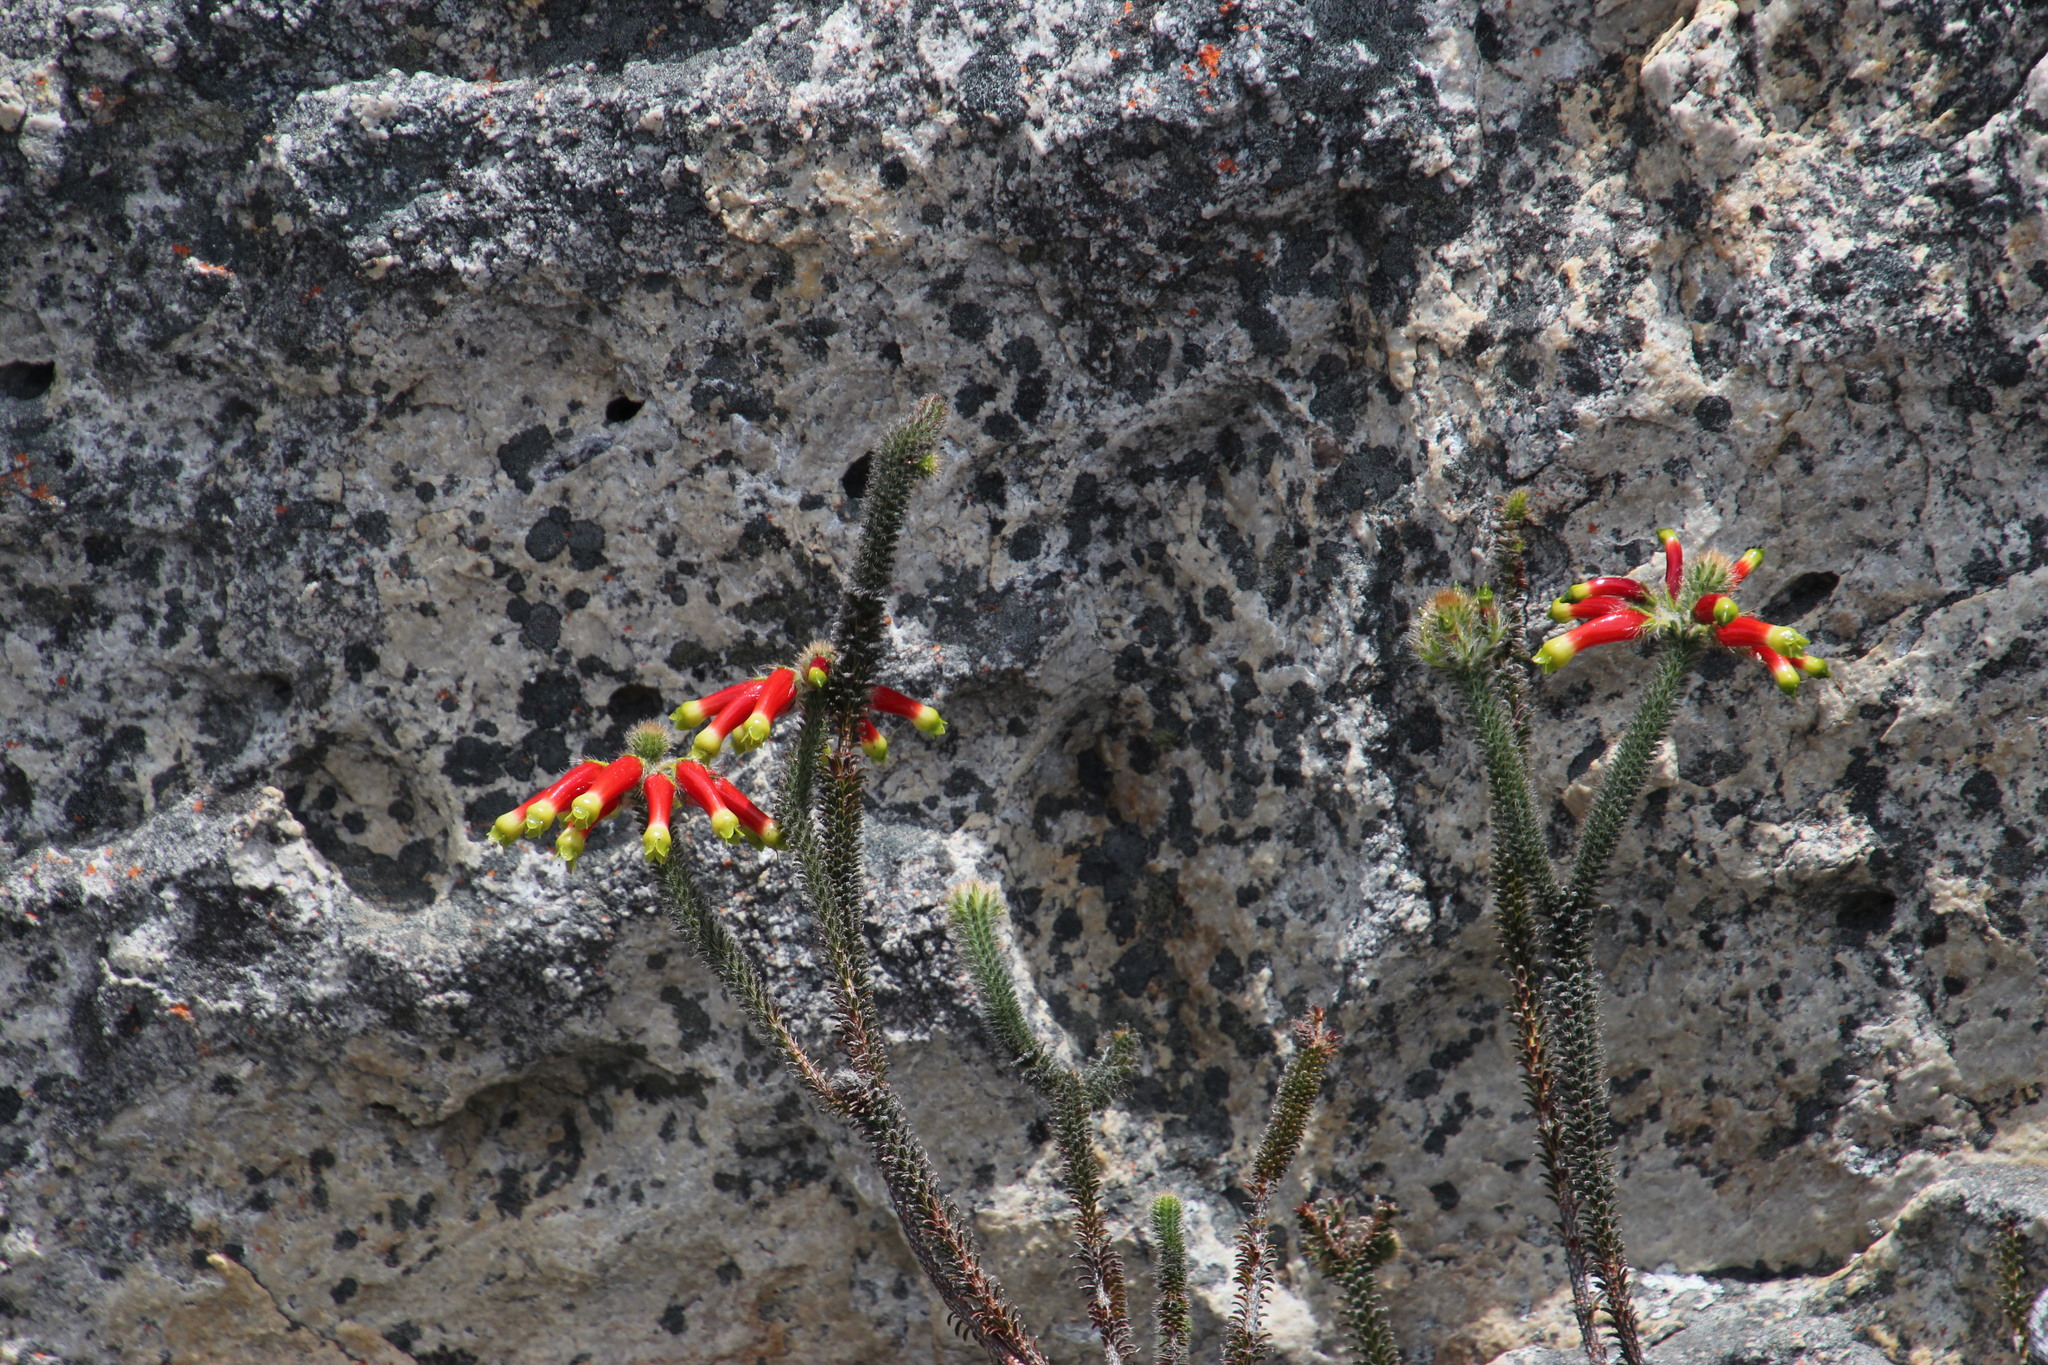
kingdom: Plantae
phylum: Tracheophyta
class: Magnoliopsida
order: Ericales
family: Ericaceae
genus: Erica
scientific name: Erica massonii
